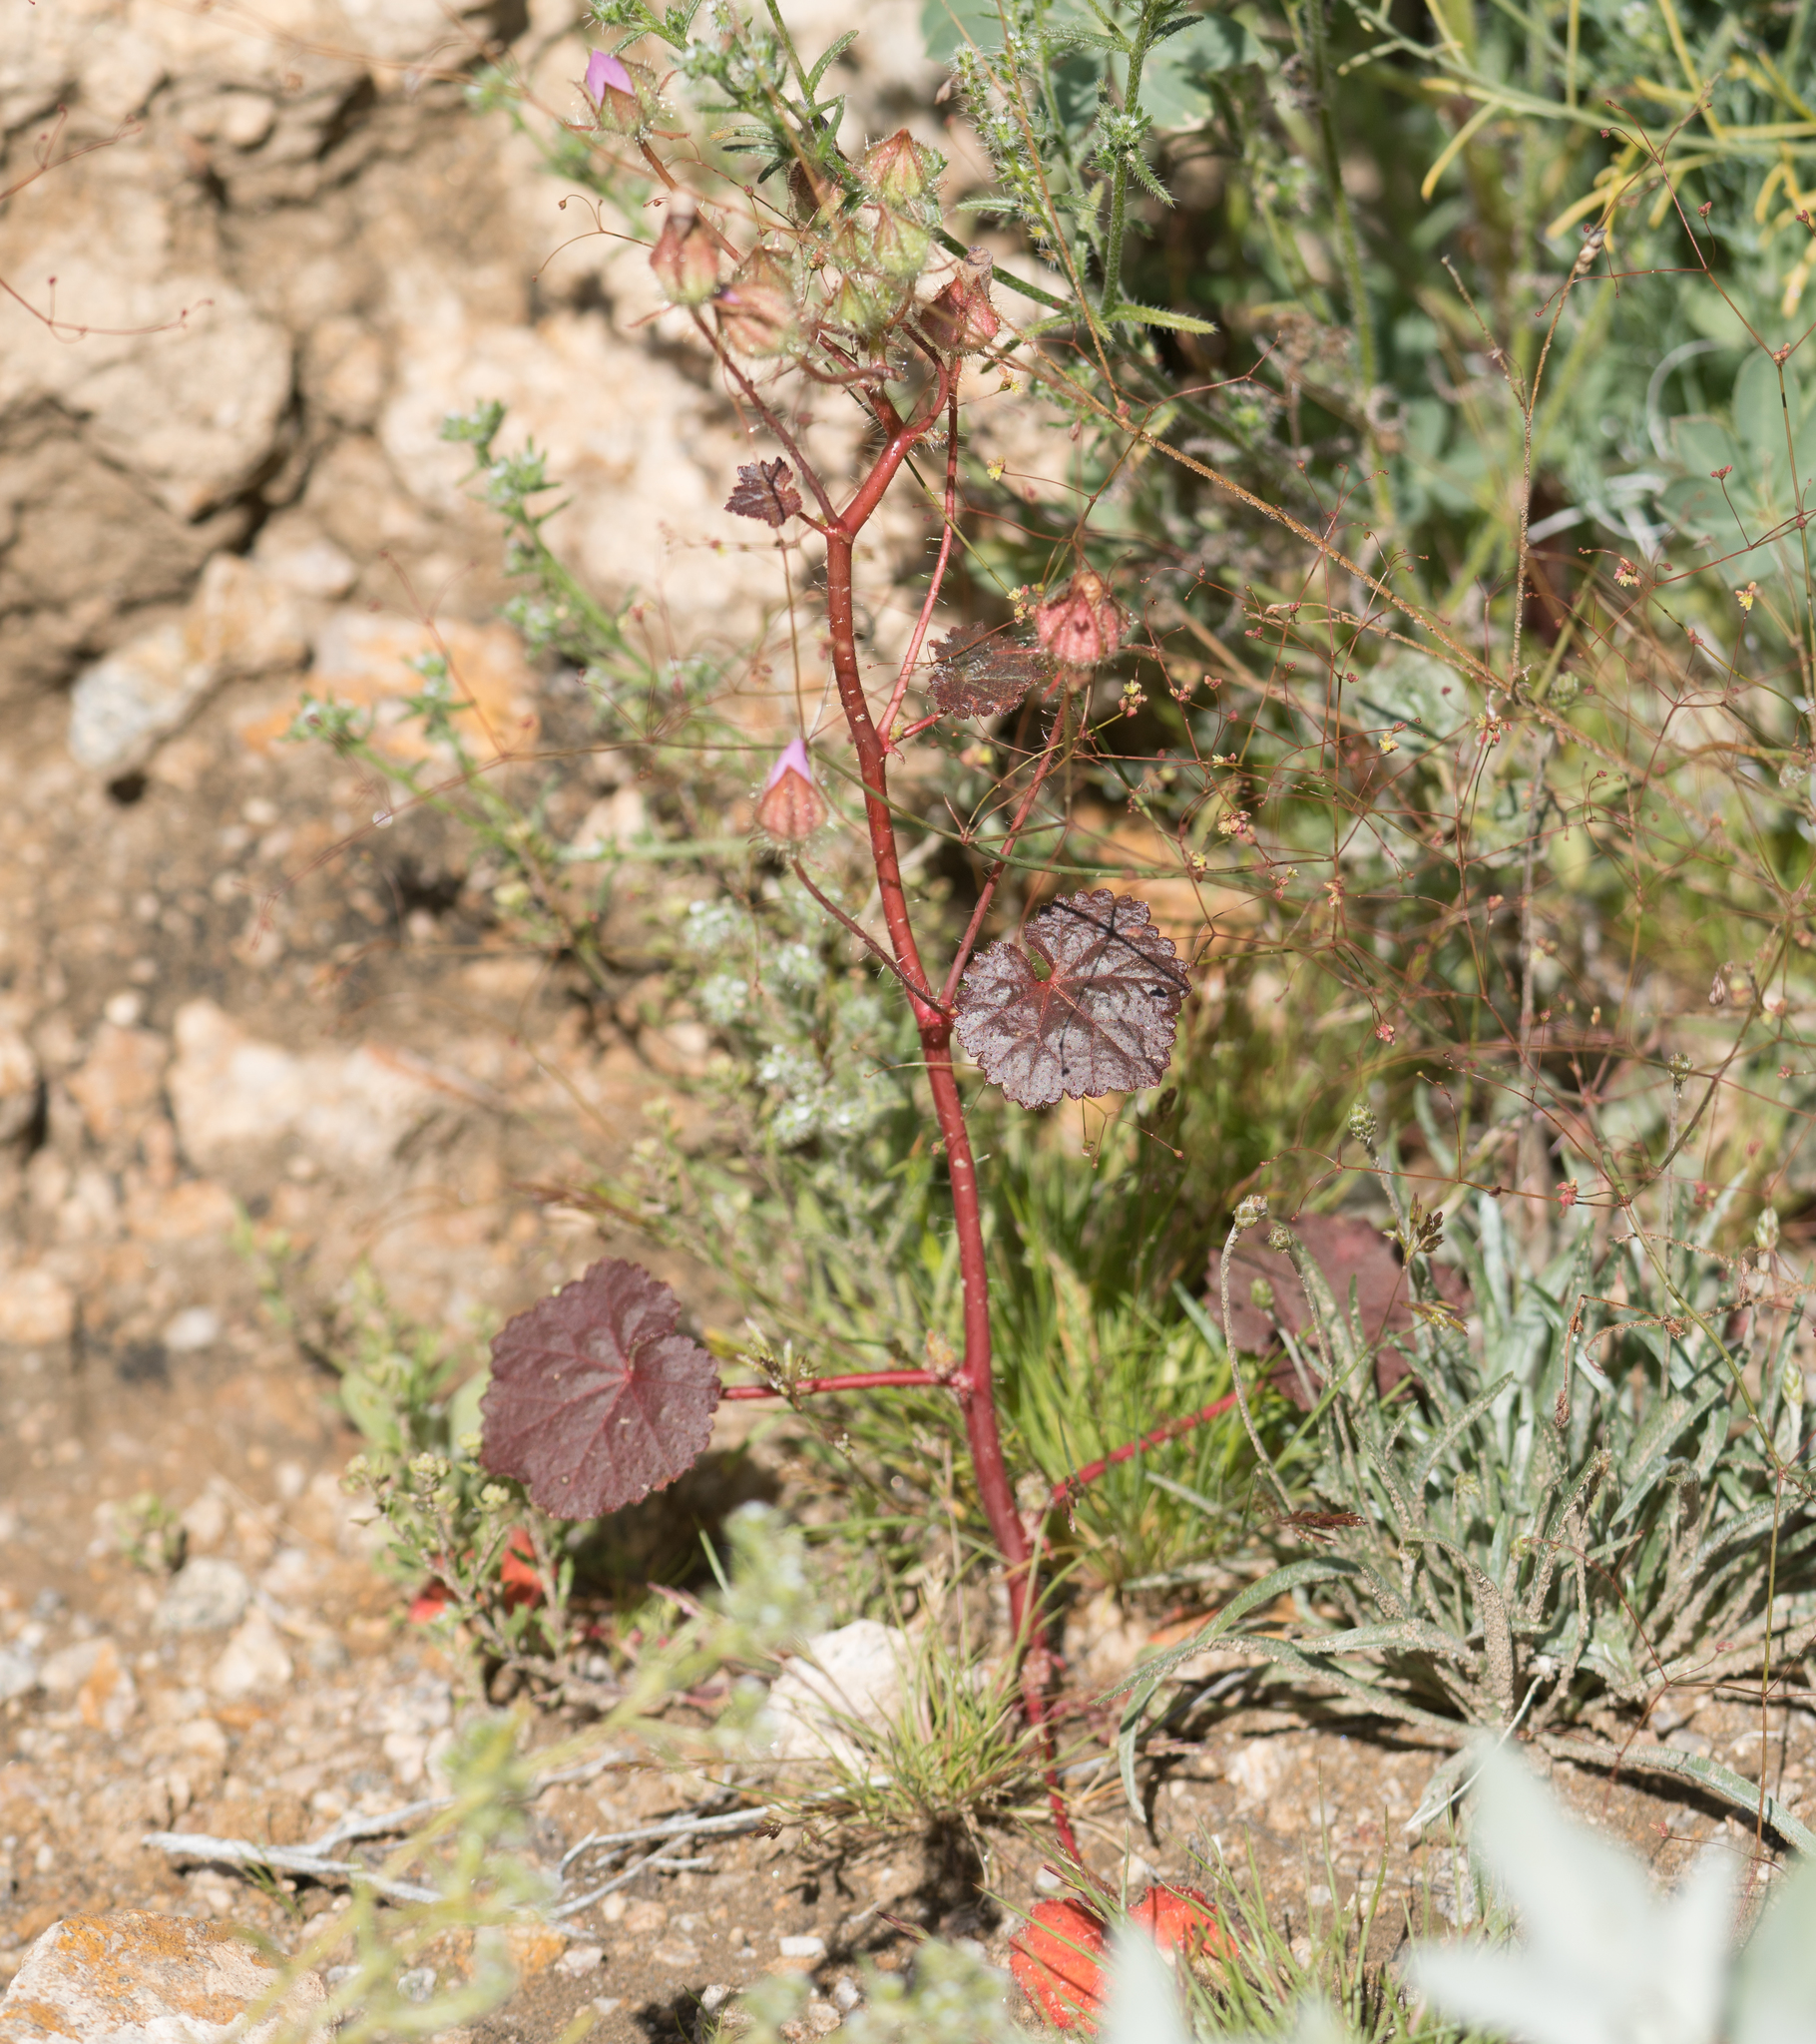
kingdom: Plantae
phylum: Tracheophyta
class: Magnoliopsida
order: Malvales
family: Malvaceae
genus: Eremalche
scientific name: Eremalche rotundifolia
